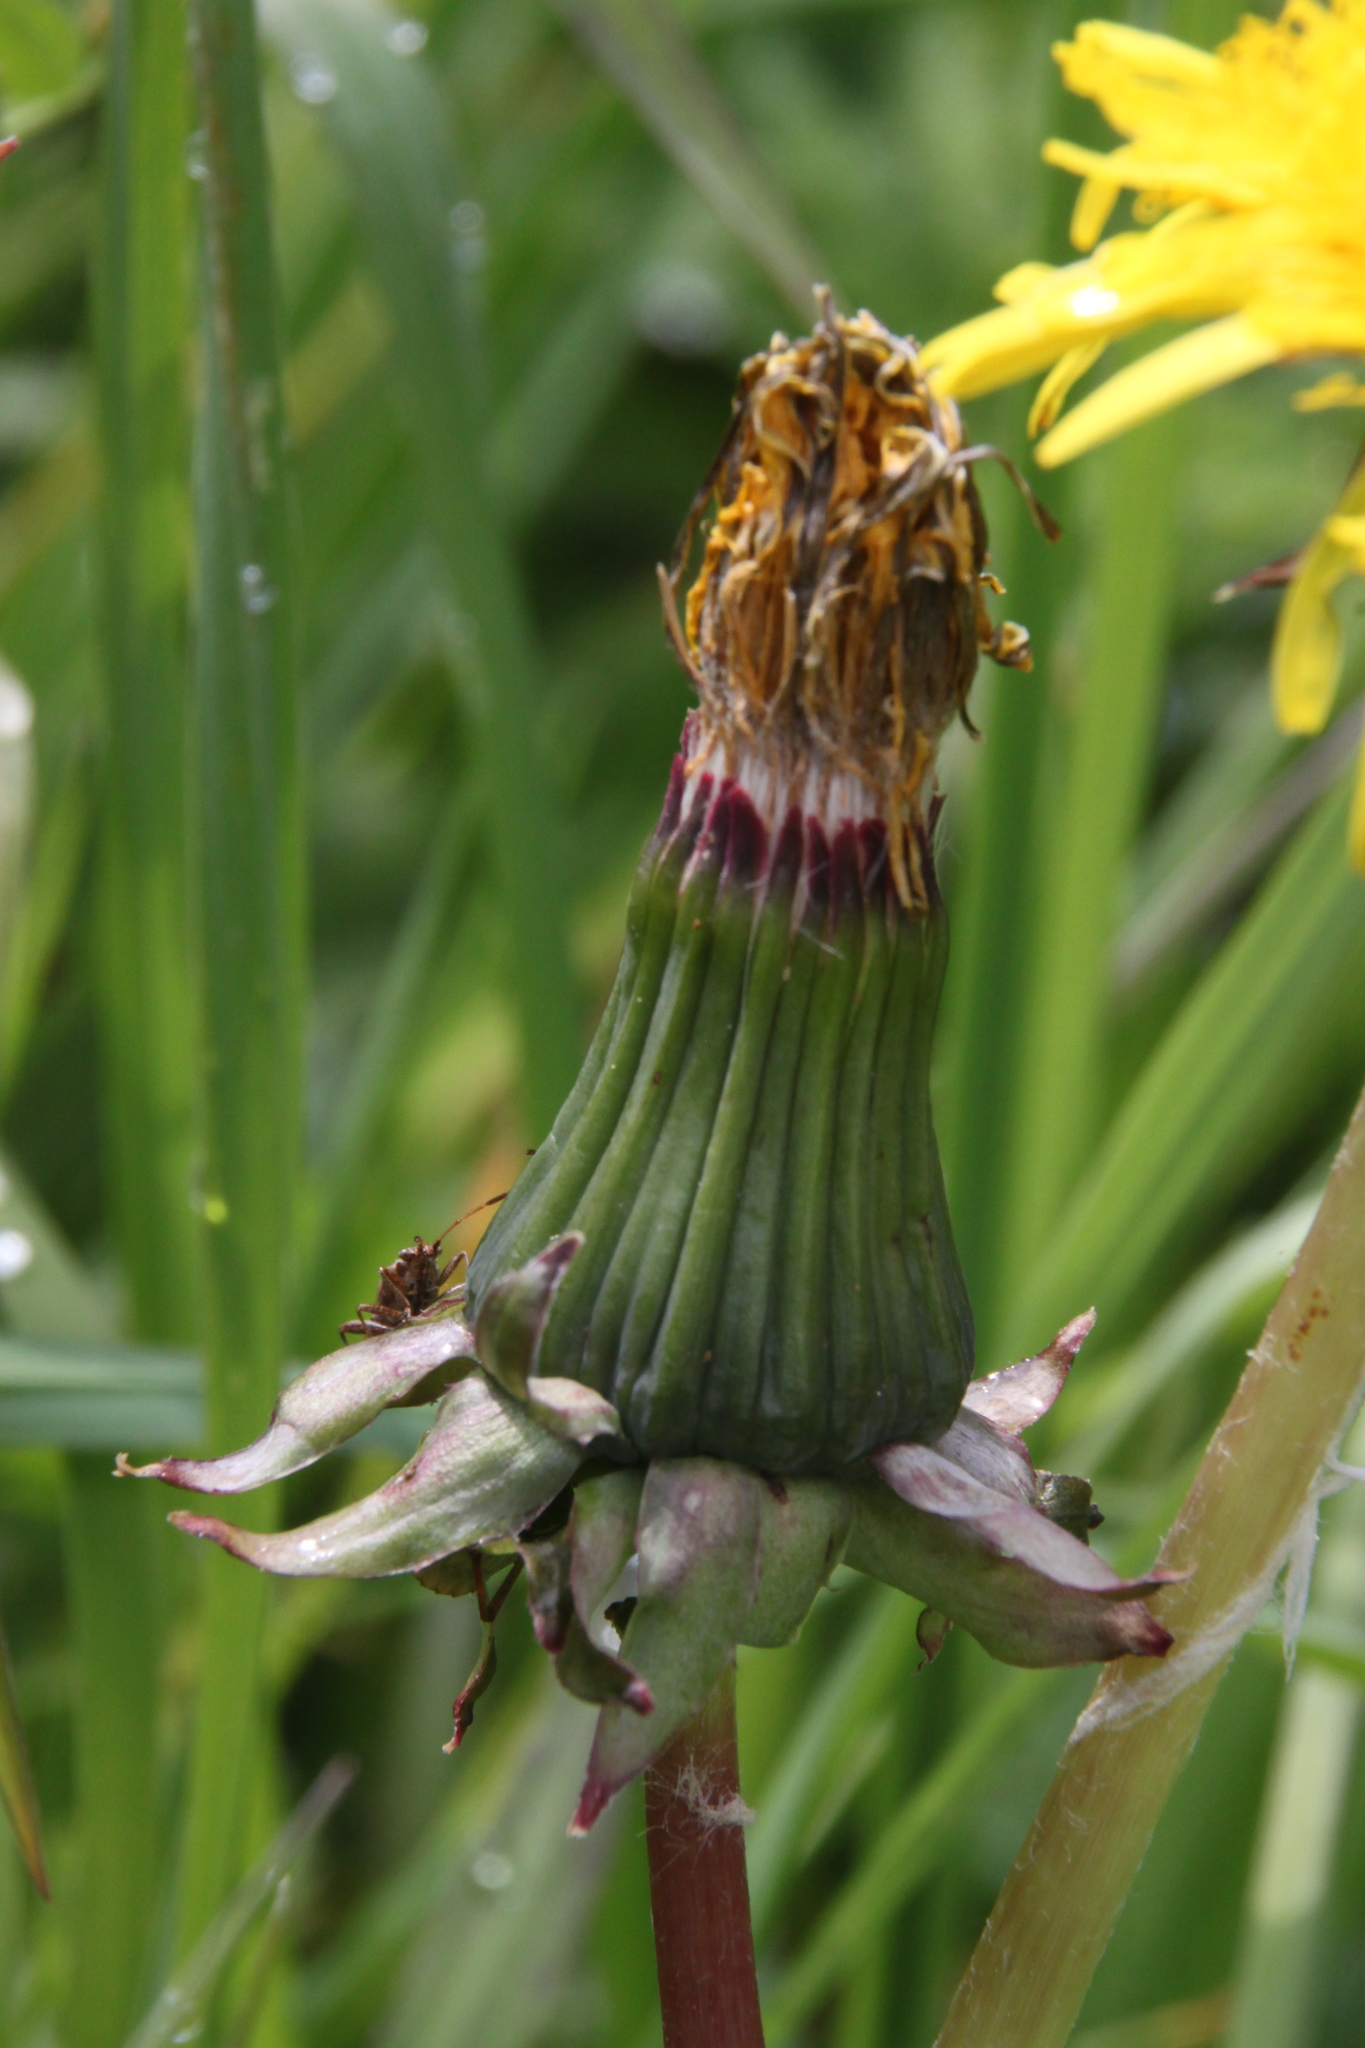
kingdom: Plantae
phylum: Tracheophyta
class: Magnoliopsida
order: Asterales
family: Asteraceae
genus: Taraxacum
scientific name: Taraxacum officinale
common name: Common dandelion
